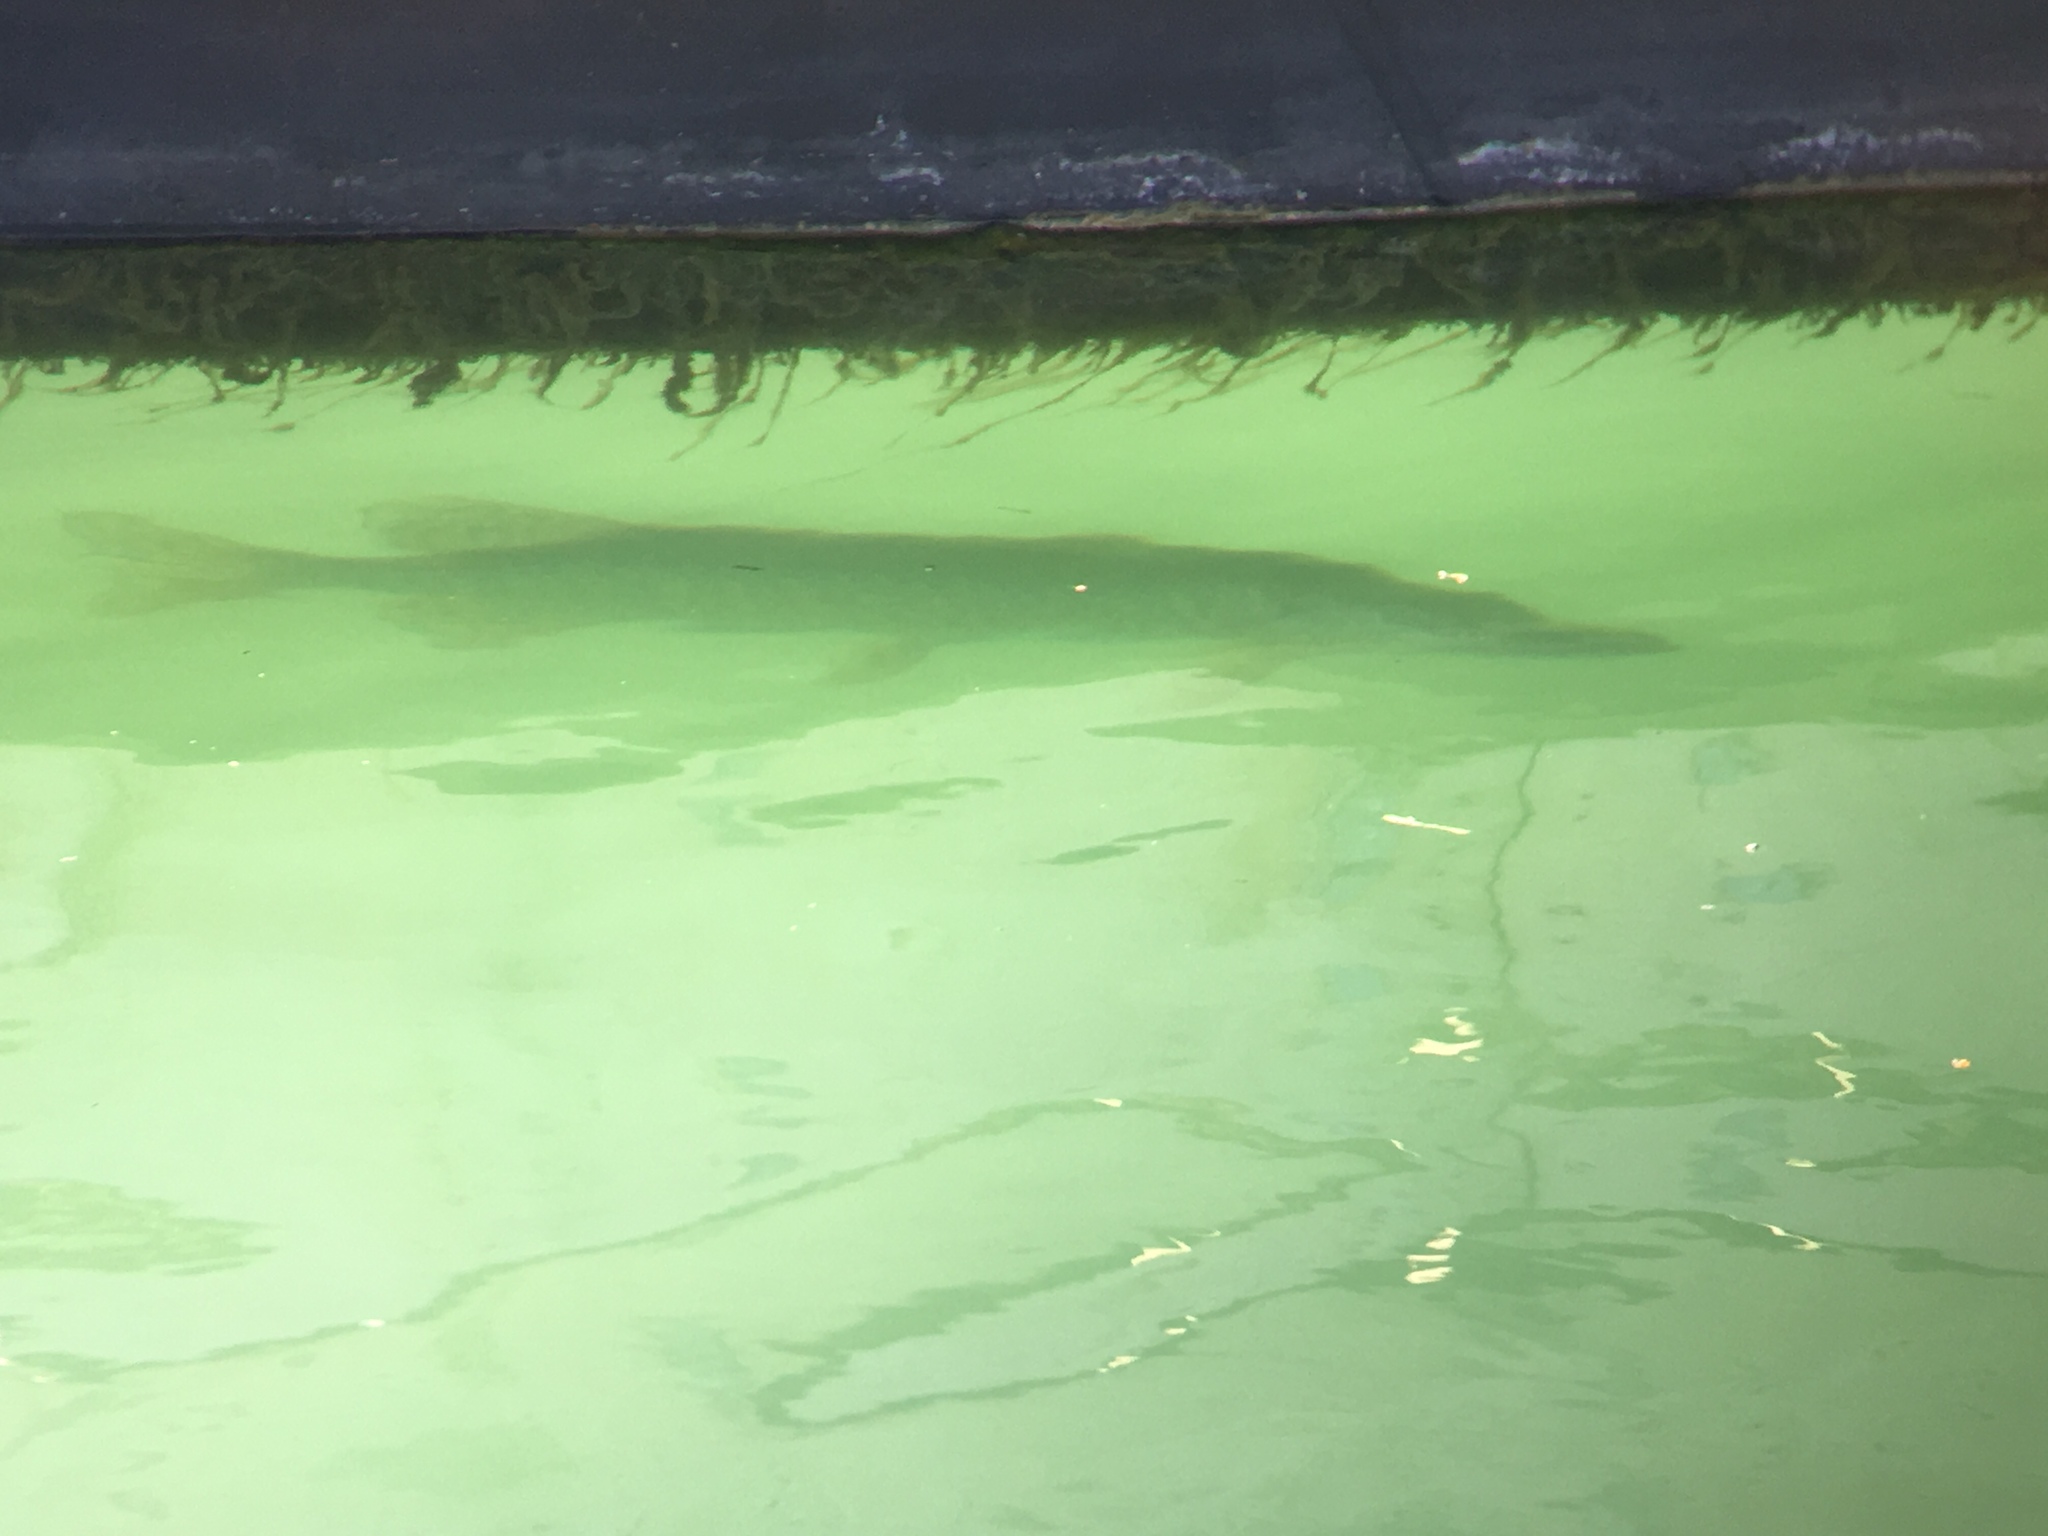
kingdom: Animalia
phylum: Chordata
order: Esociformes
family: Esocidae
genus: Esox
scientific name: Esox lucius
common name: Northern pike
